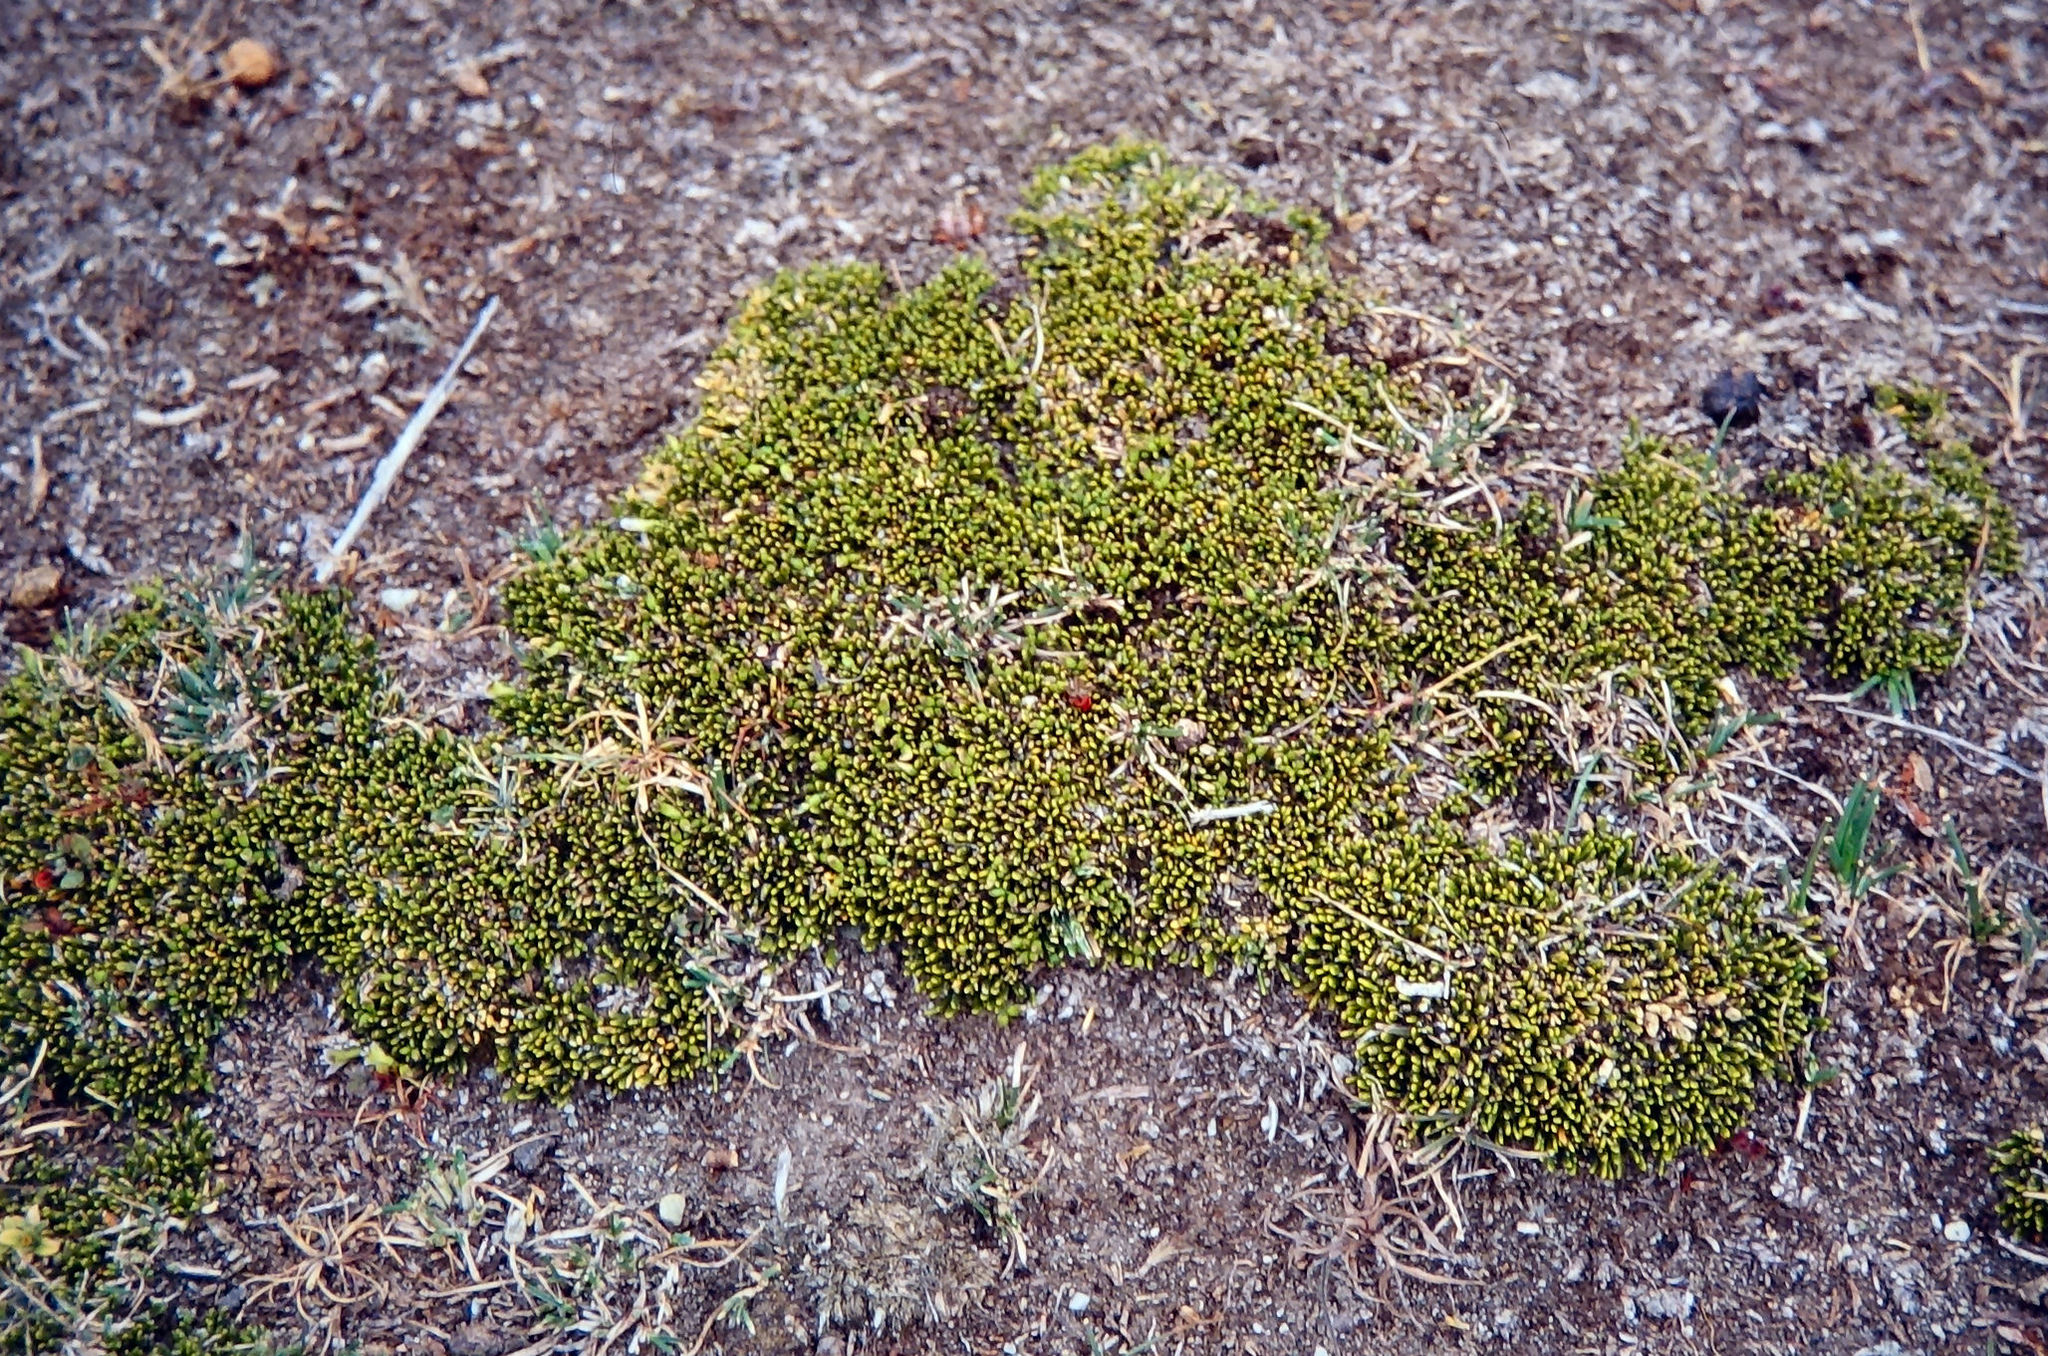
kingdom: Plantae
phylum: Tracheophyta
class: Magnoliopsida
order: Fabales
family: Fabaceae
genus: Carmichaelia
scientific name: Carmichaelia nana
